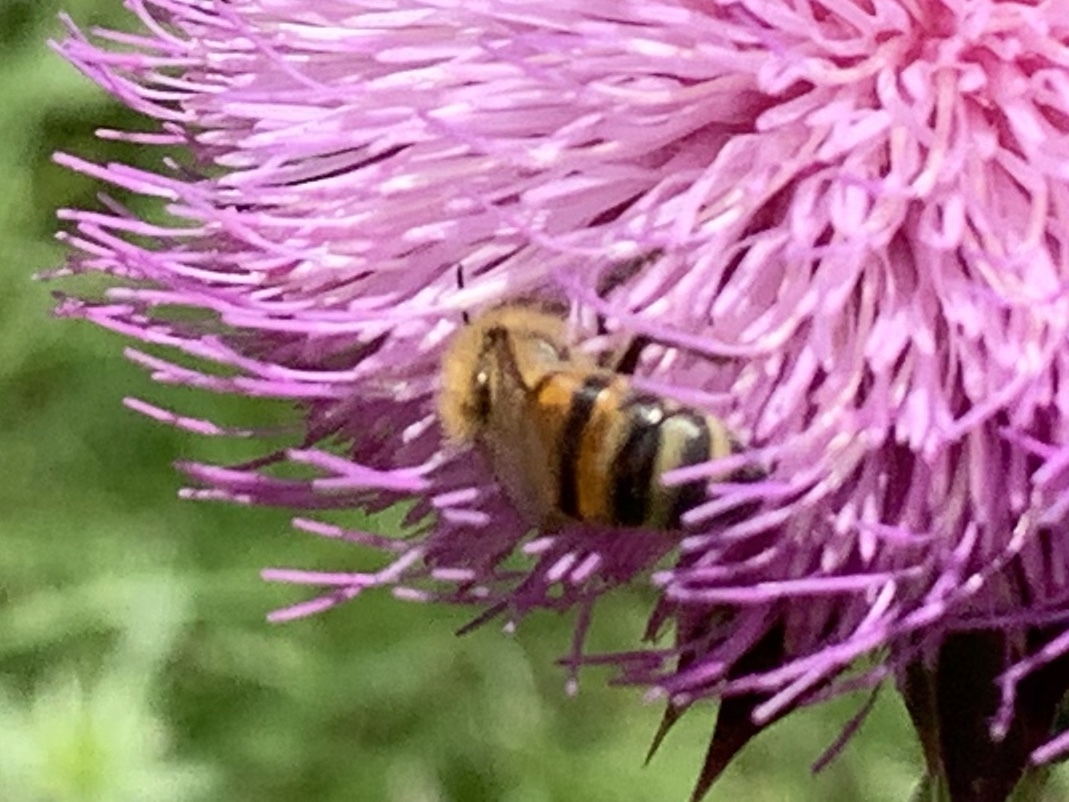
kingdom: Animalia
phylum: Arthropoda
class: Insecta
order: Hymenoptera
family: Apidae
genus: Apis
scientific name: Apis mellifera
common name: Honey bee
